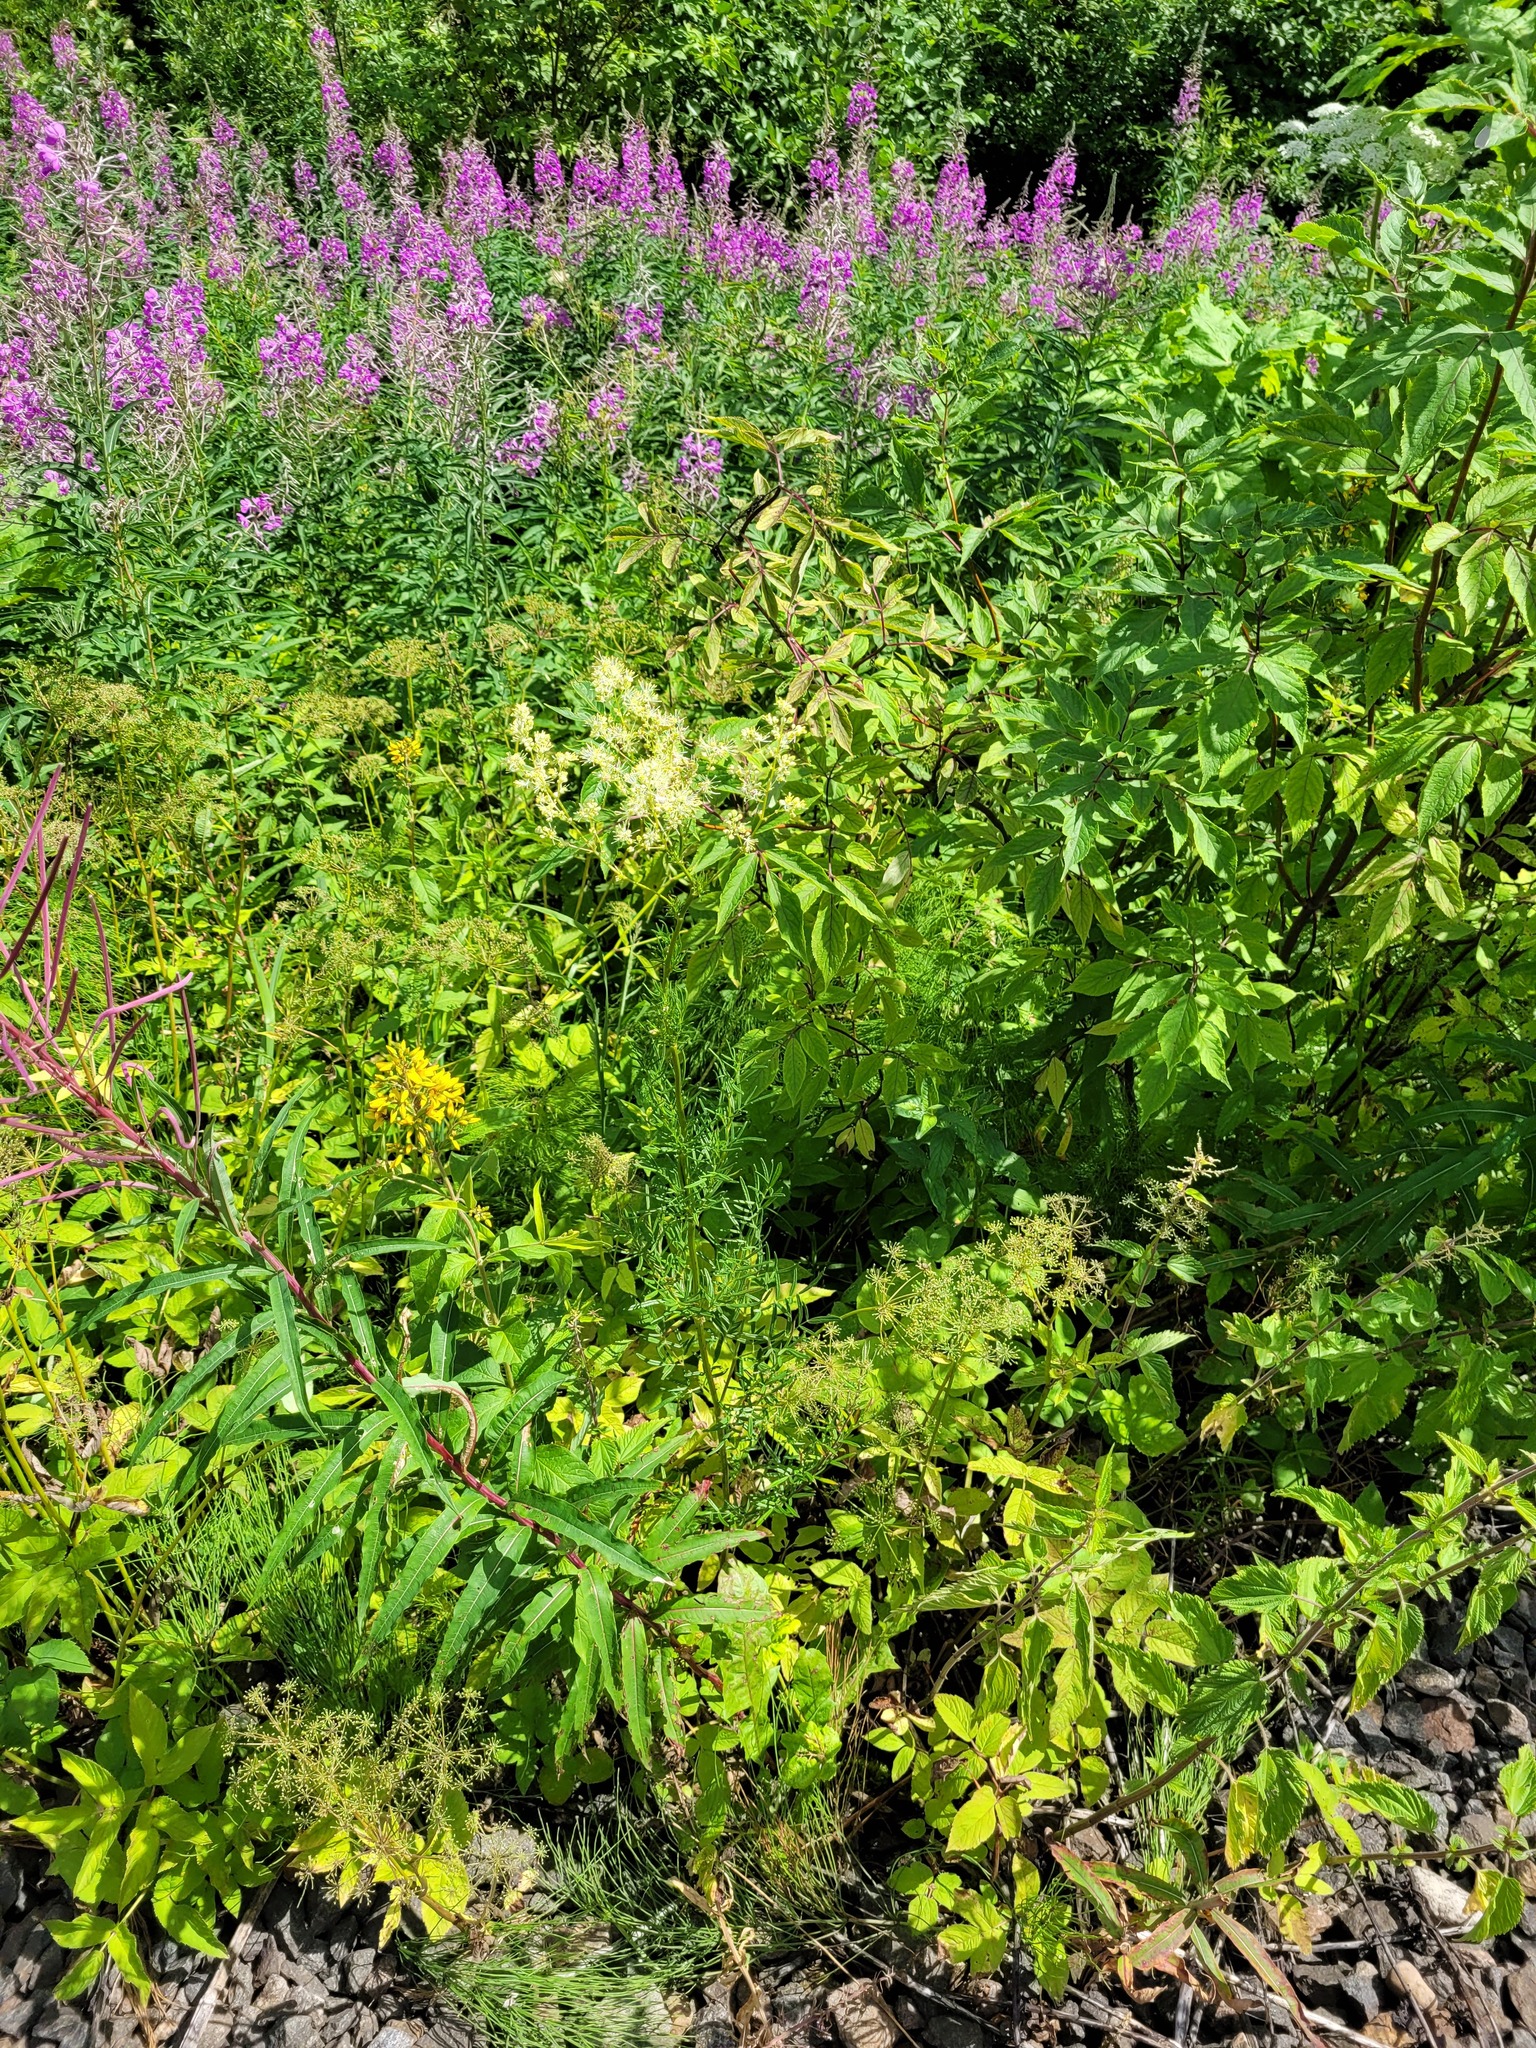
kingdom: Plantae
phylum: Tracheophyta
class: Magnoliopsida
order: Ranunculales
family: Ranunculaceae
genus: Thalictrum
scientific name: Thalictrum lucidum
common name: Shining meadow-rue
